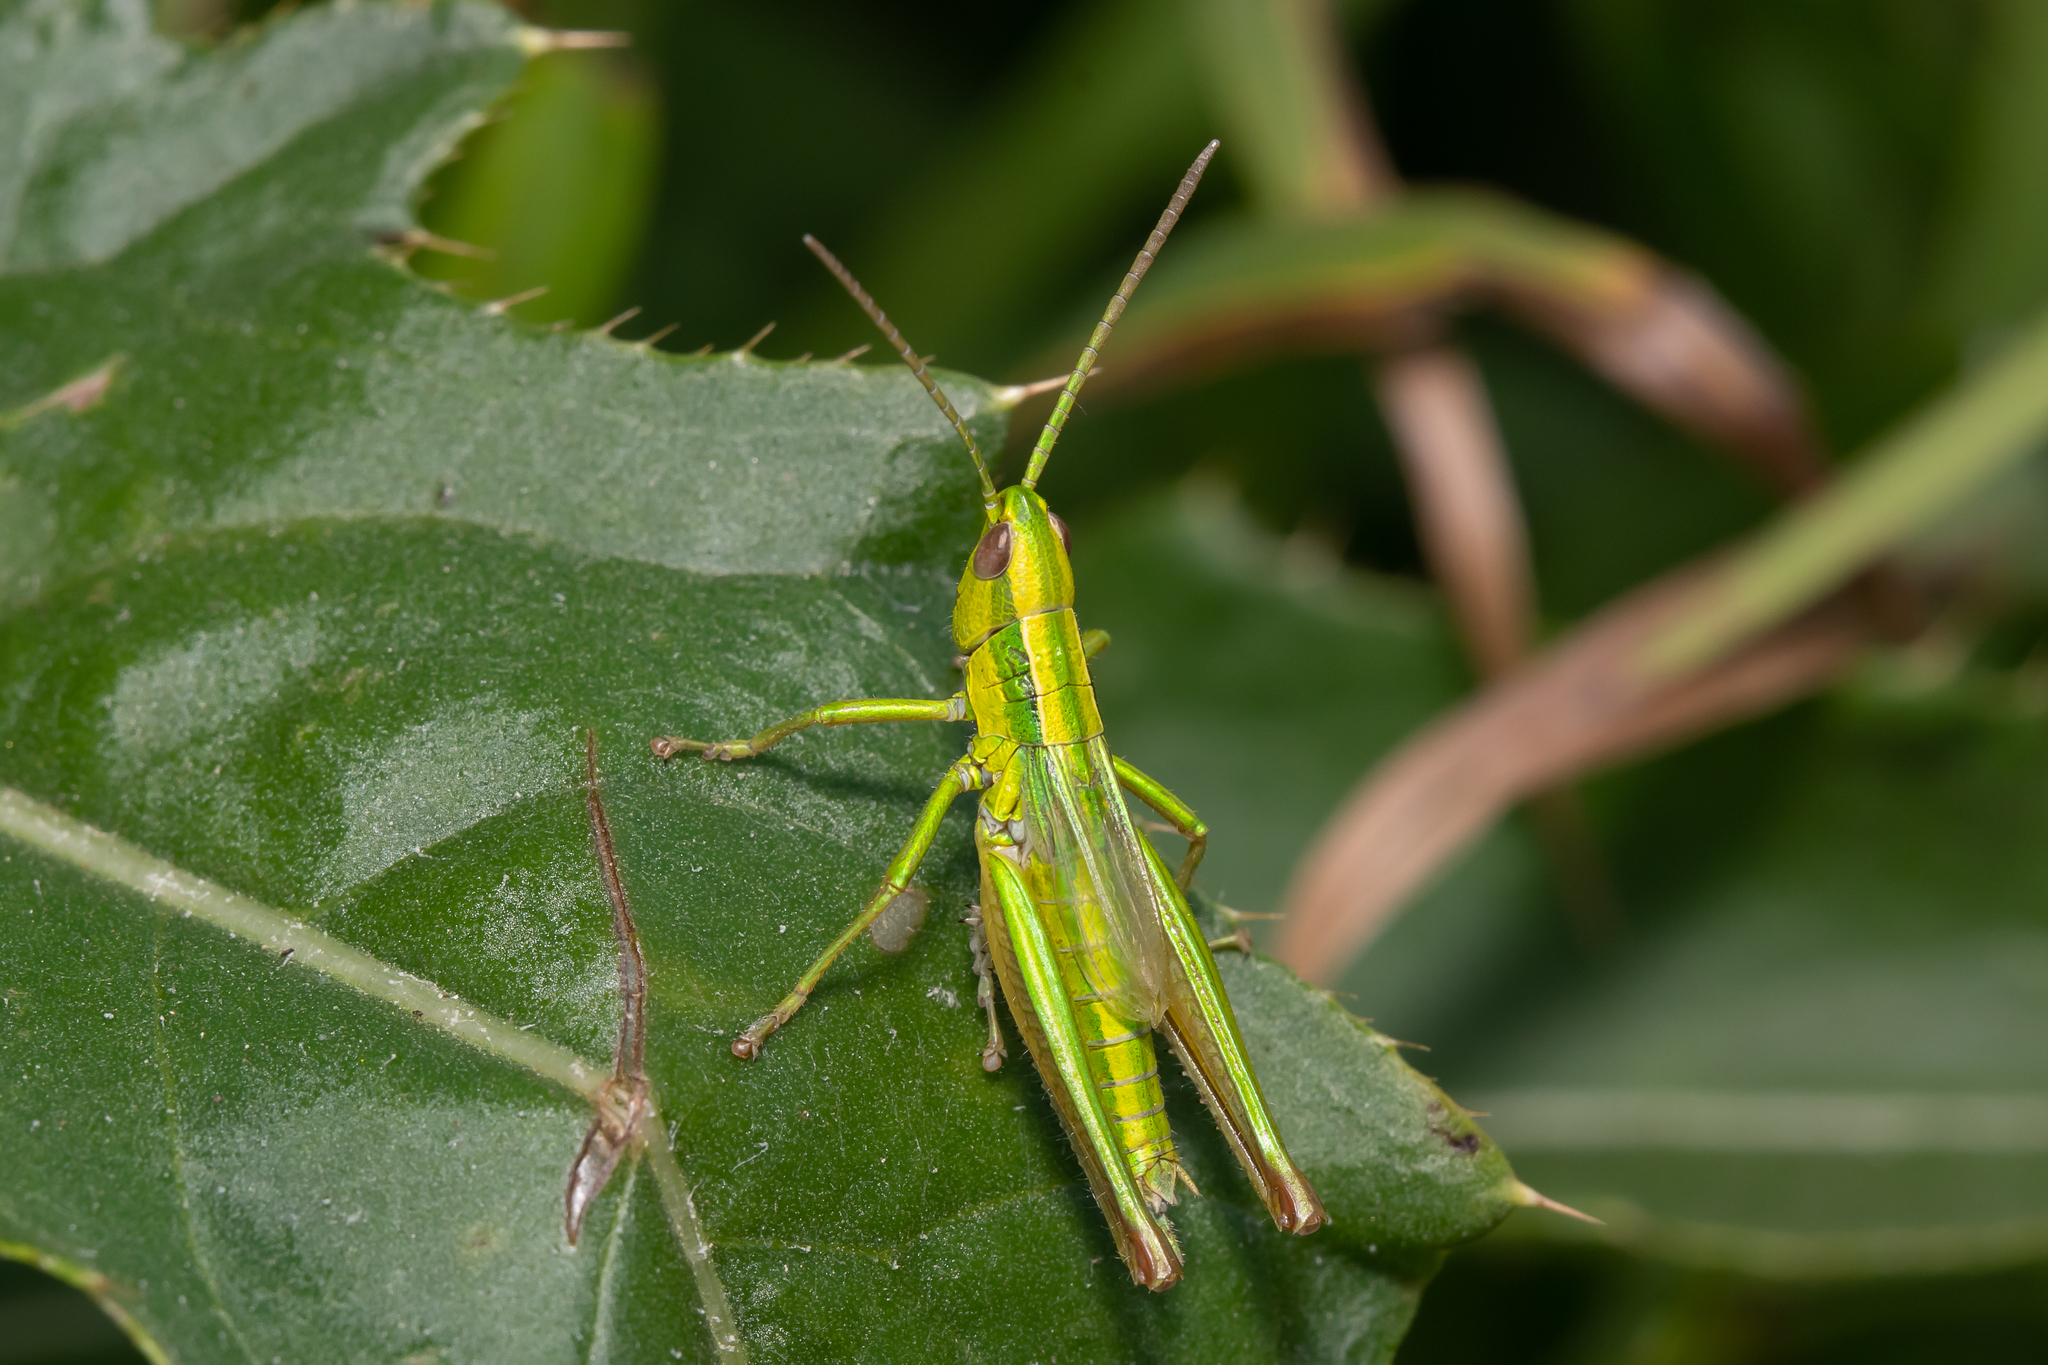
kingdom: Animalia
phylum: Arthropoda
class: Insecta
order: Orthoptera
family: Acrididae
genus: Euthystira
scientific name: Euthystira brachyptera
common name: Small gold grasshopper
